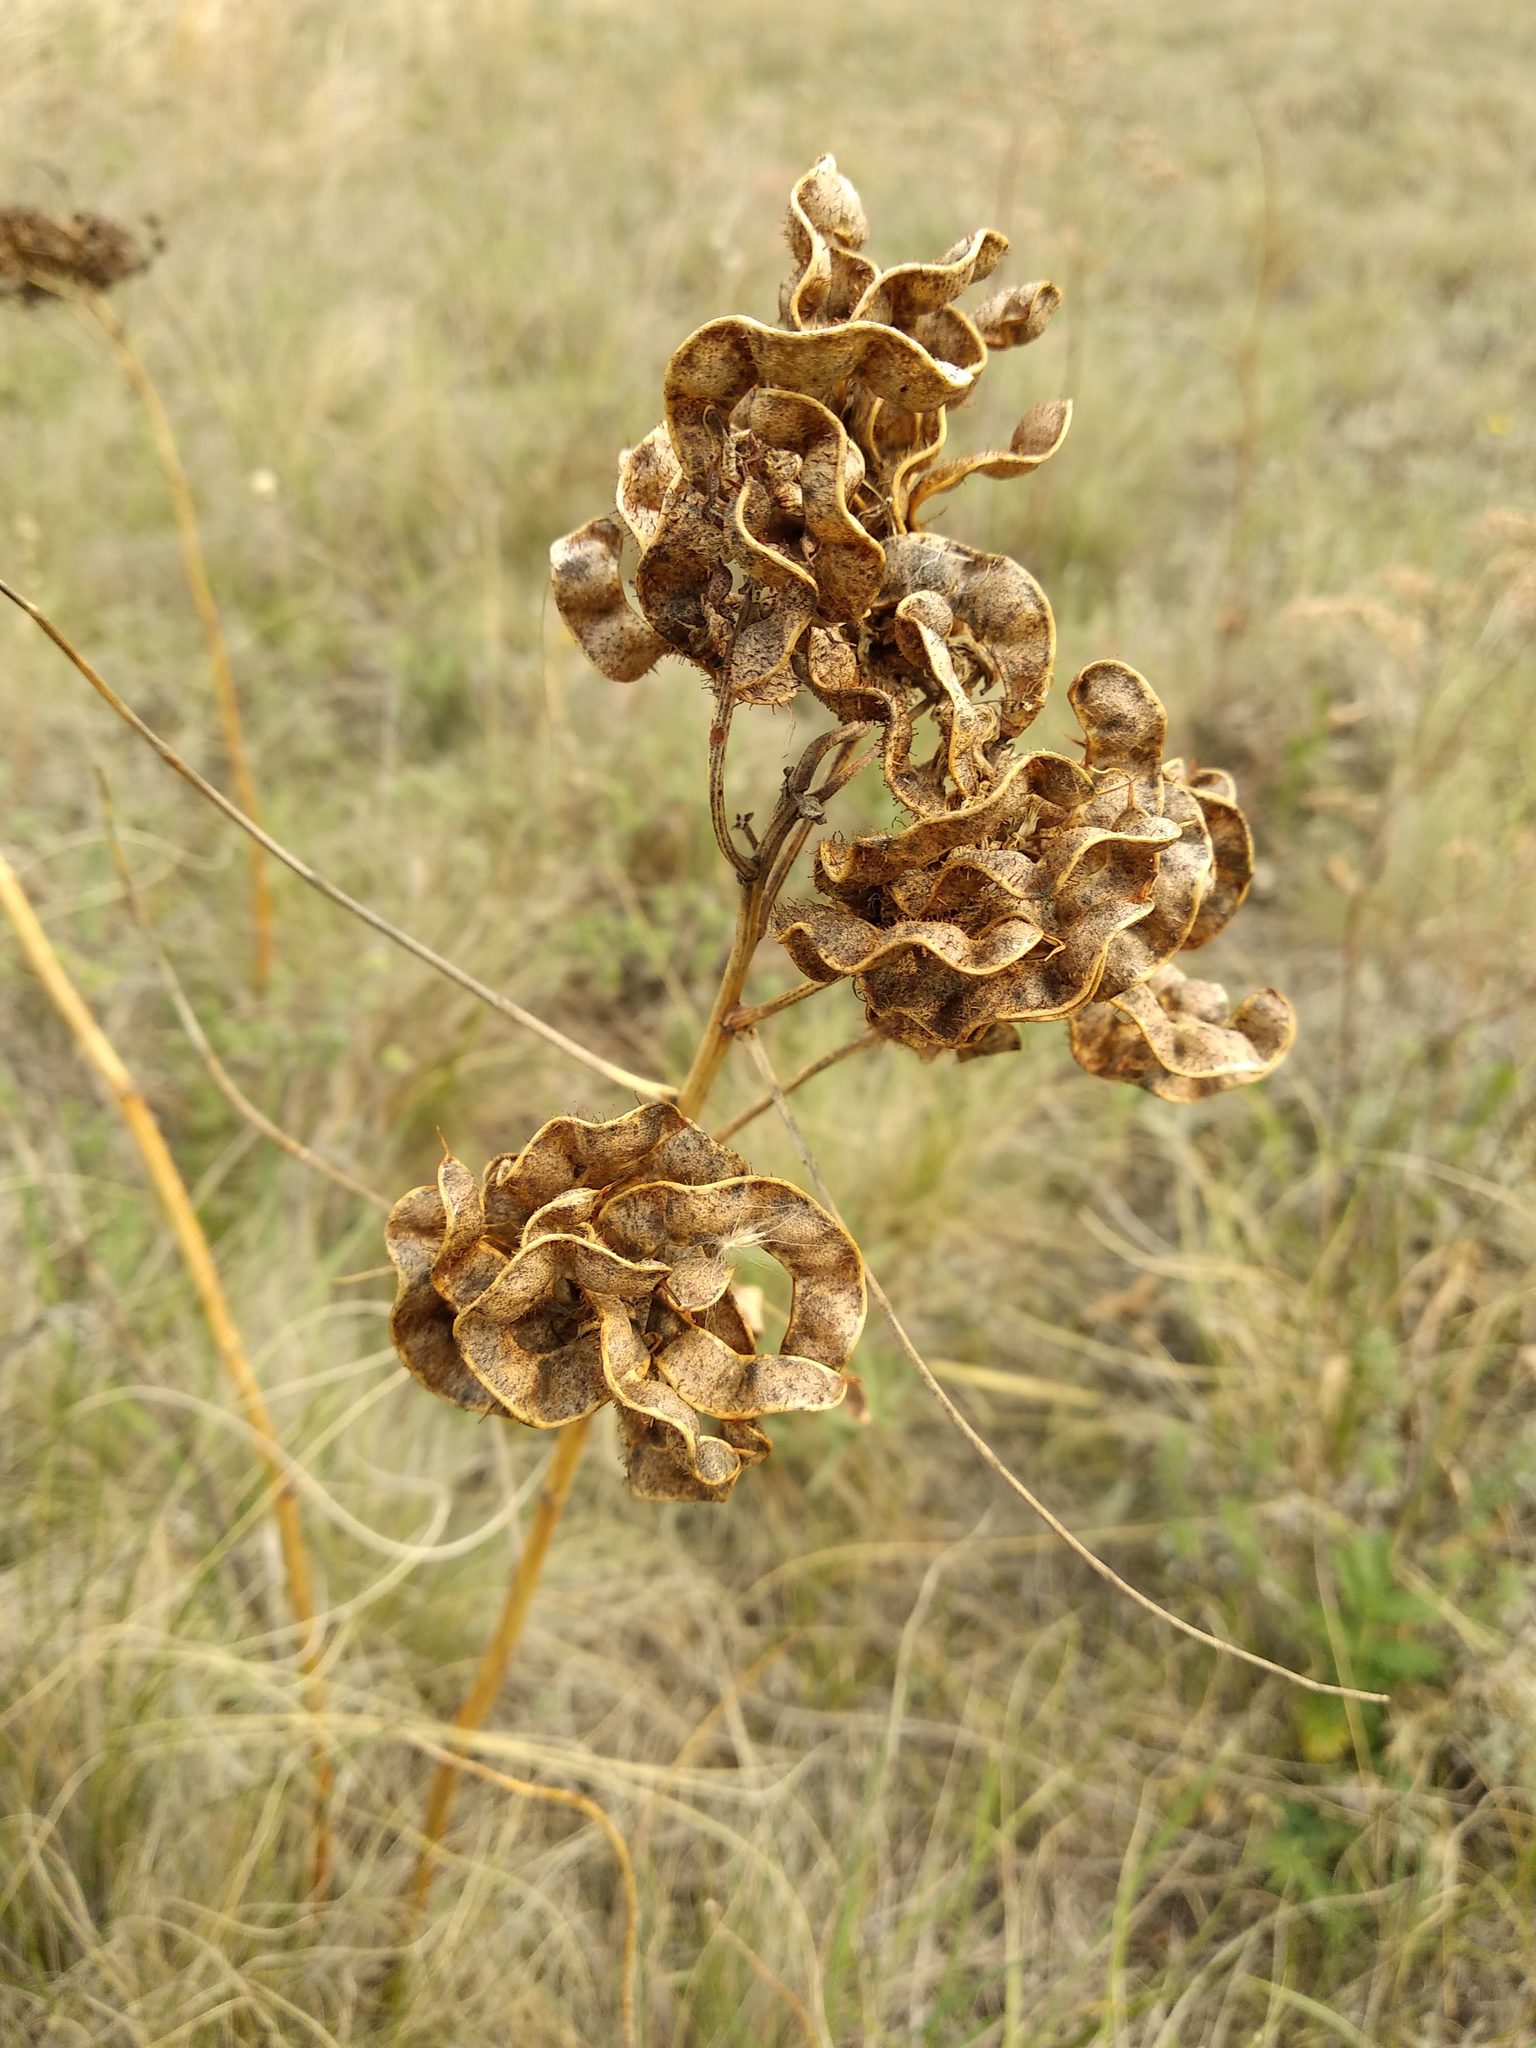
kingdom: Plantae
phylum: Tracheophyta
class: Magnoliopsida
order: Fabales
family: Fabaceae
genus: Glycyrrhiza
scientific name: Glycyrrhiza uralensis
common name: Chinese licorice
